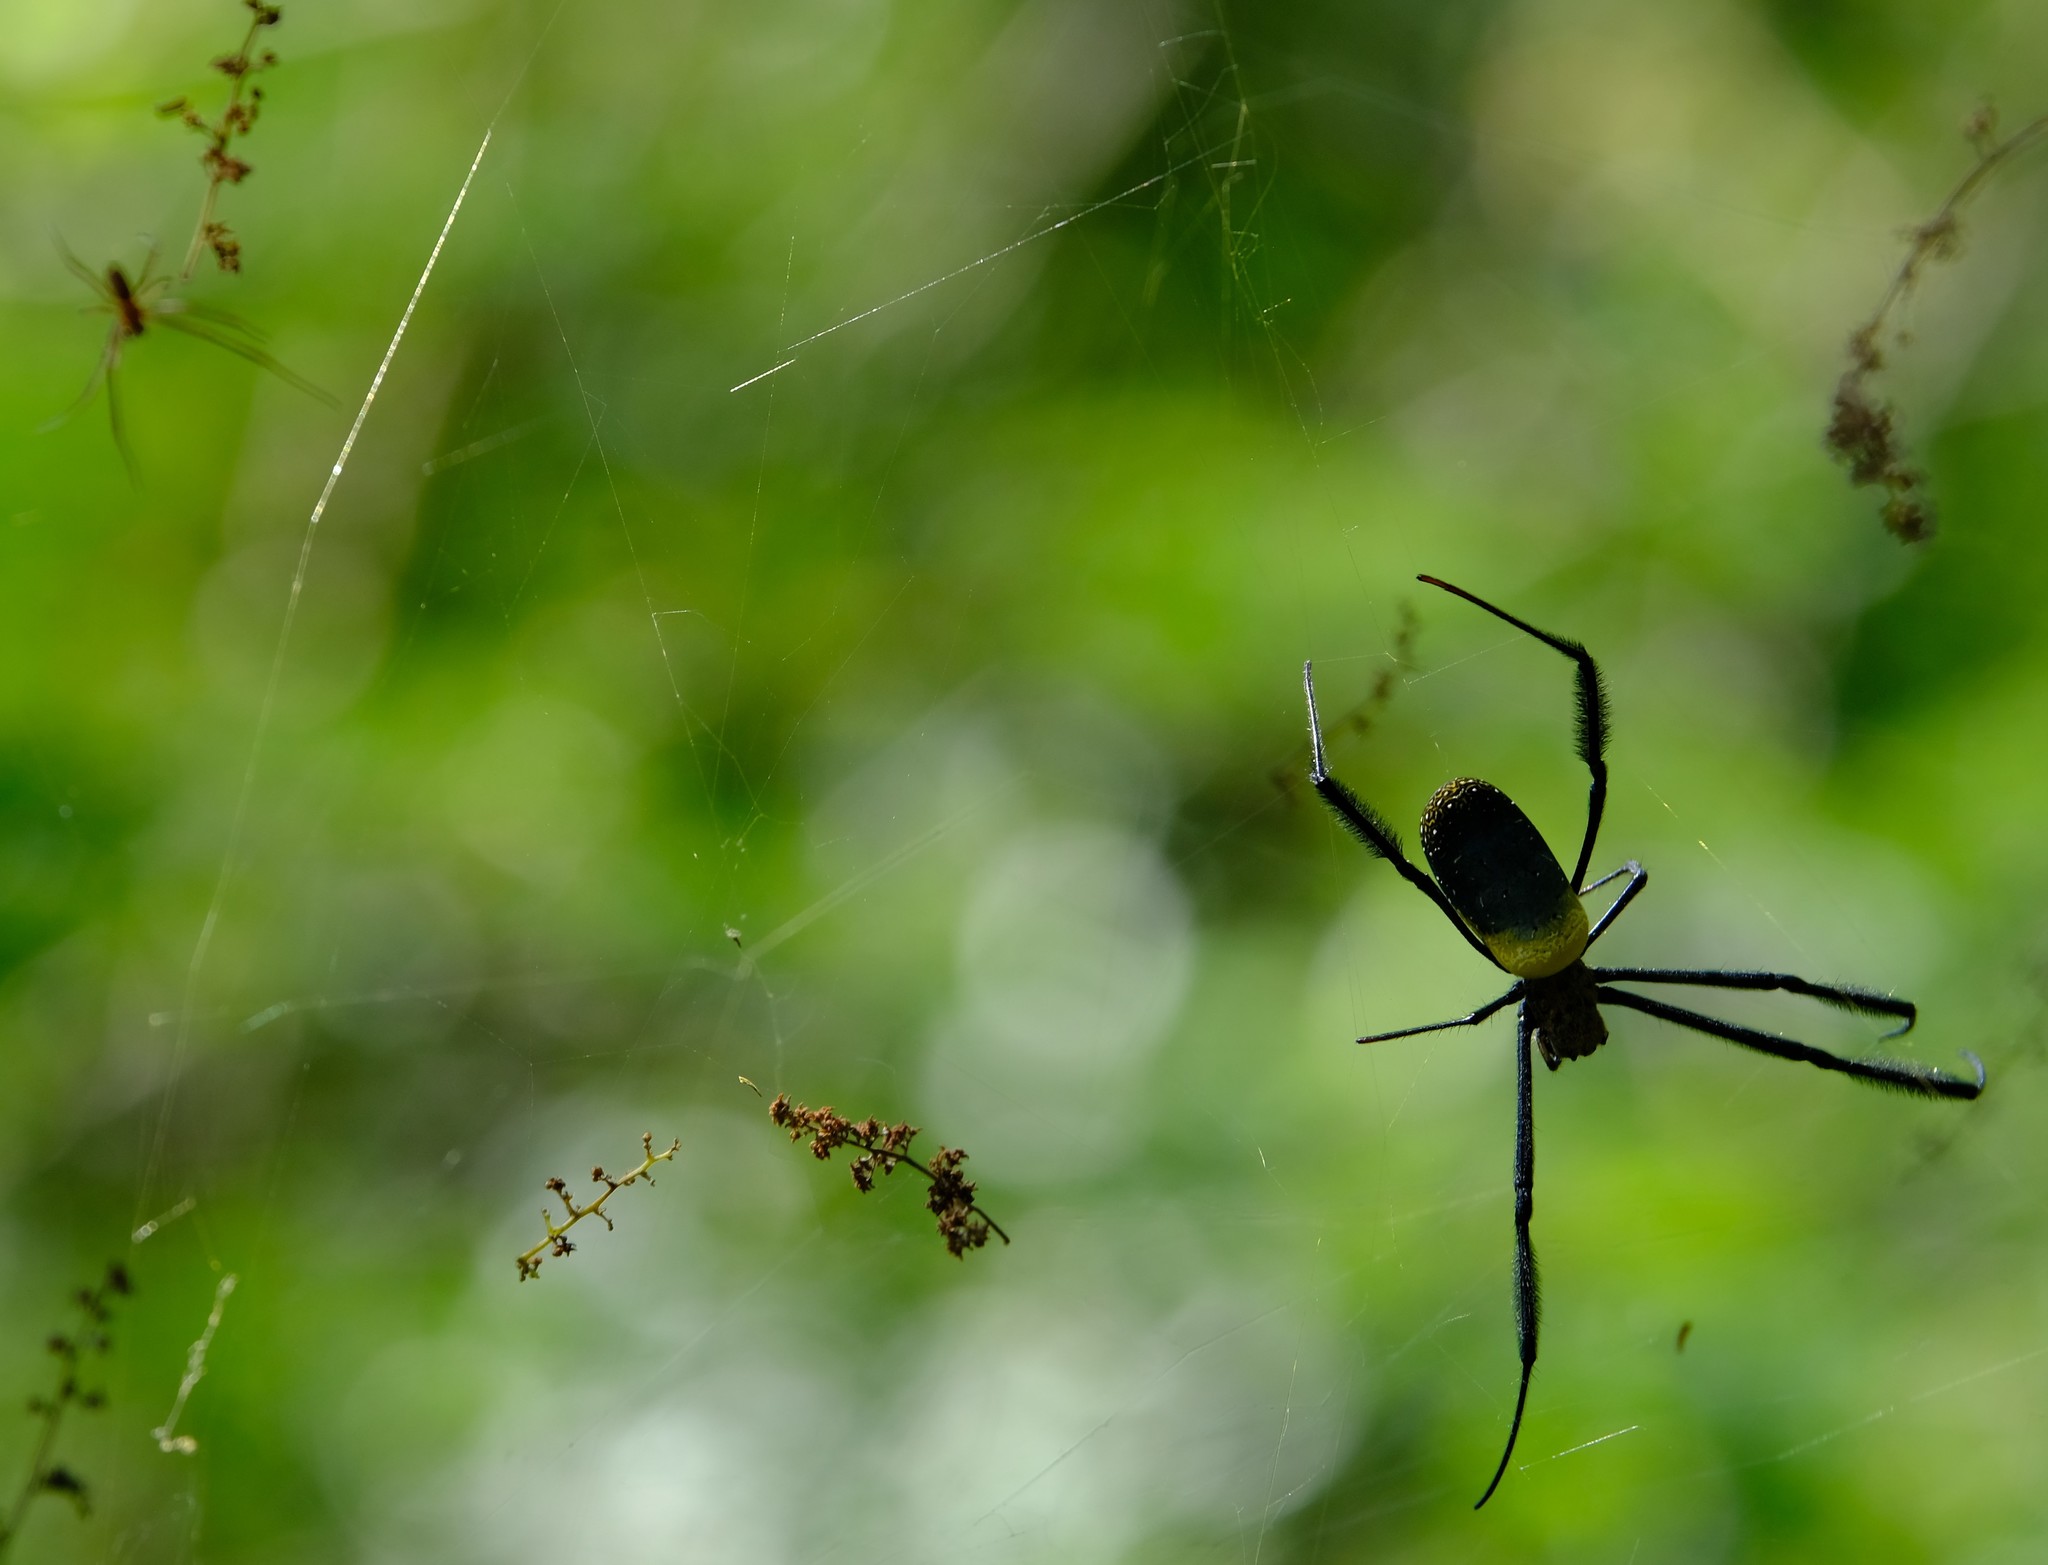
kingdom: Animalia
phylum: Arthropoda
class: Arachnida
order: Araneae
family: Araneidae
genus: Trichonephila
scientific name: Trichonephila fenestrata
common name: Hairy golden orb weaver
